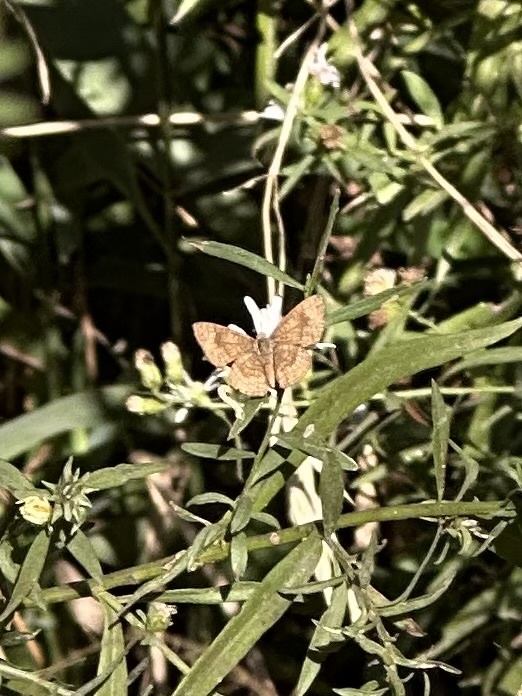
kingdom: Animalia
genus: Calephelis
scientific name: Calephelis nemesis
